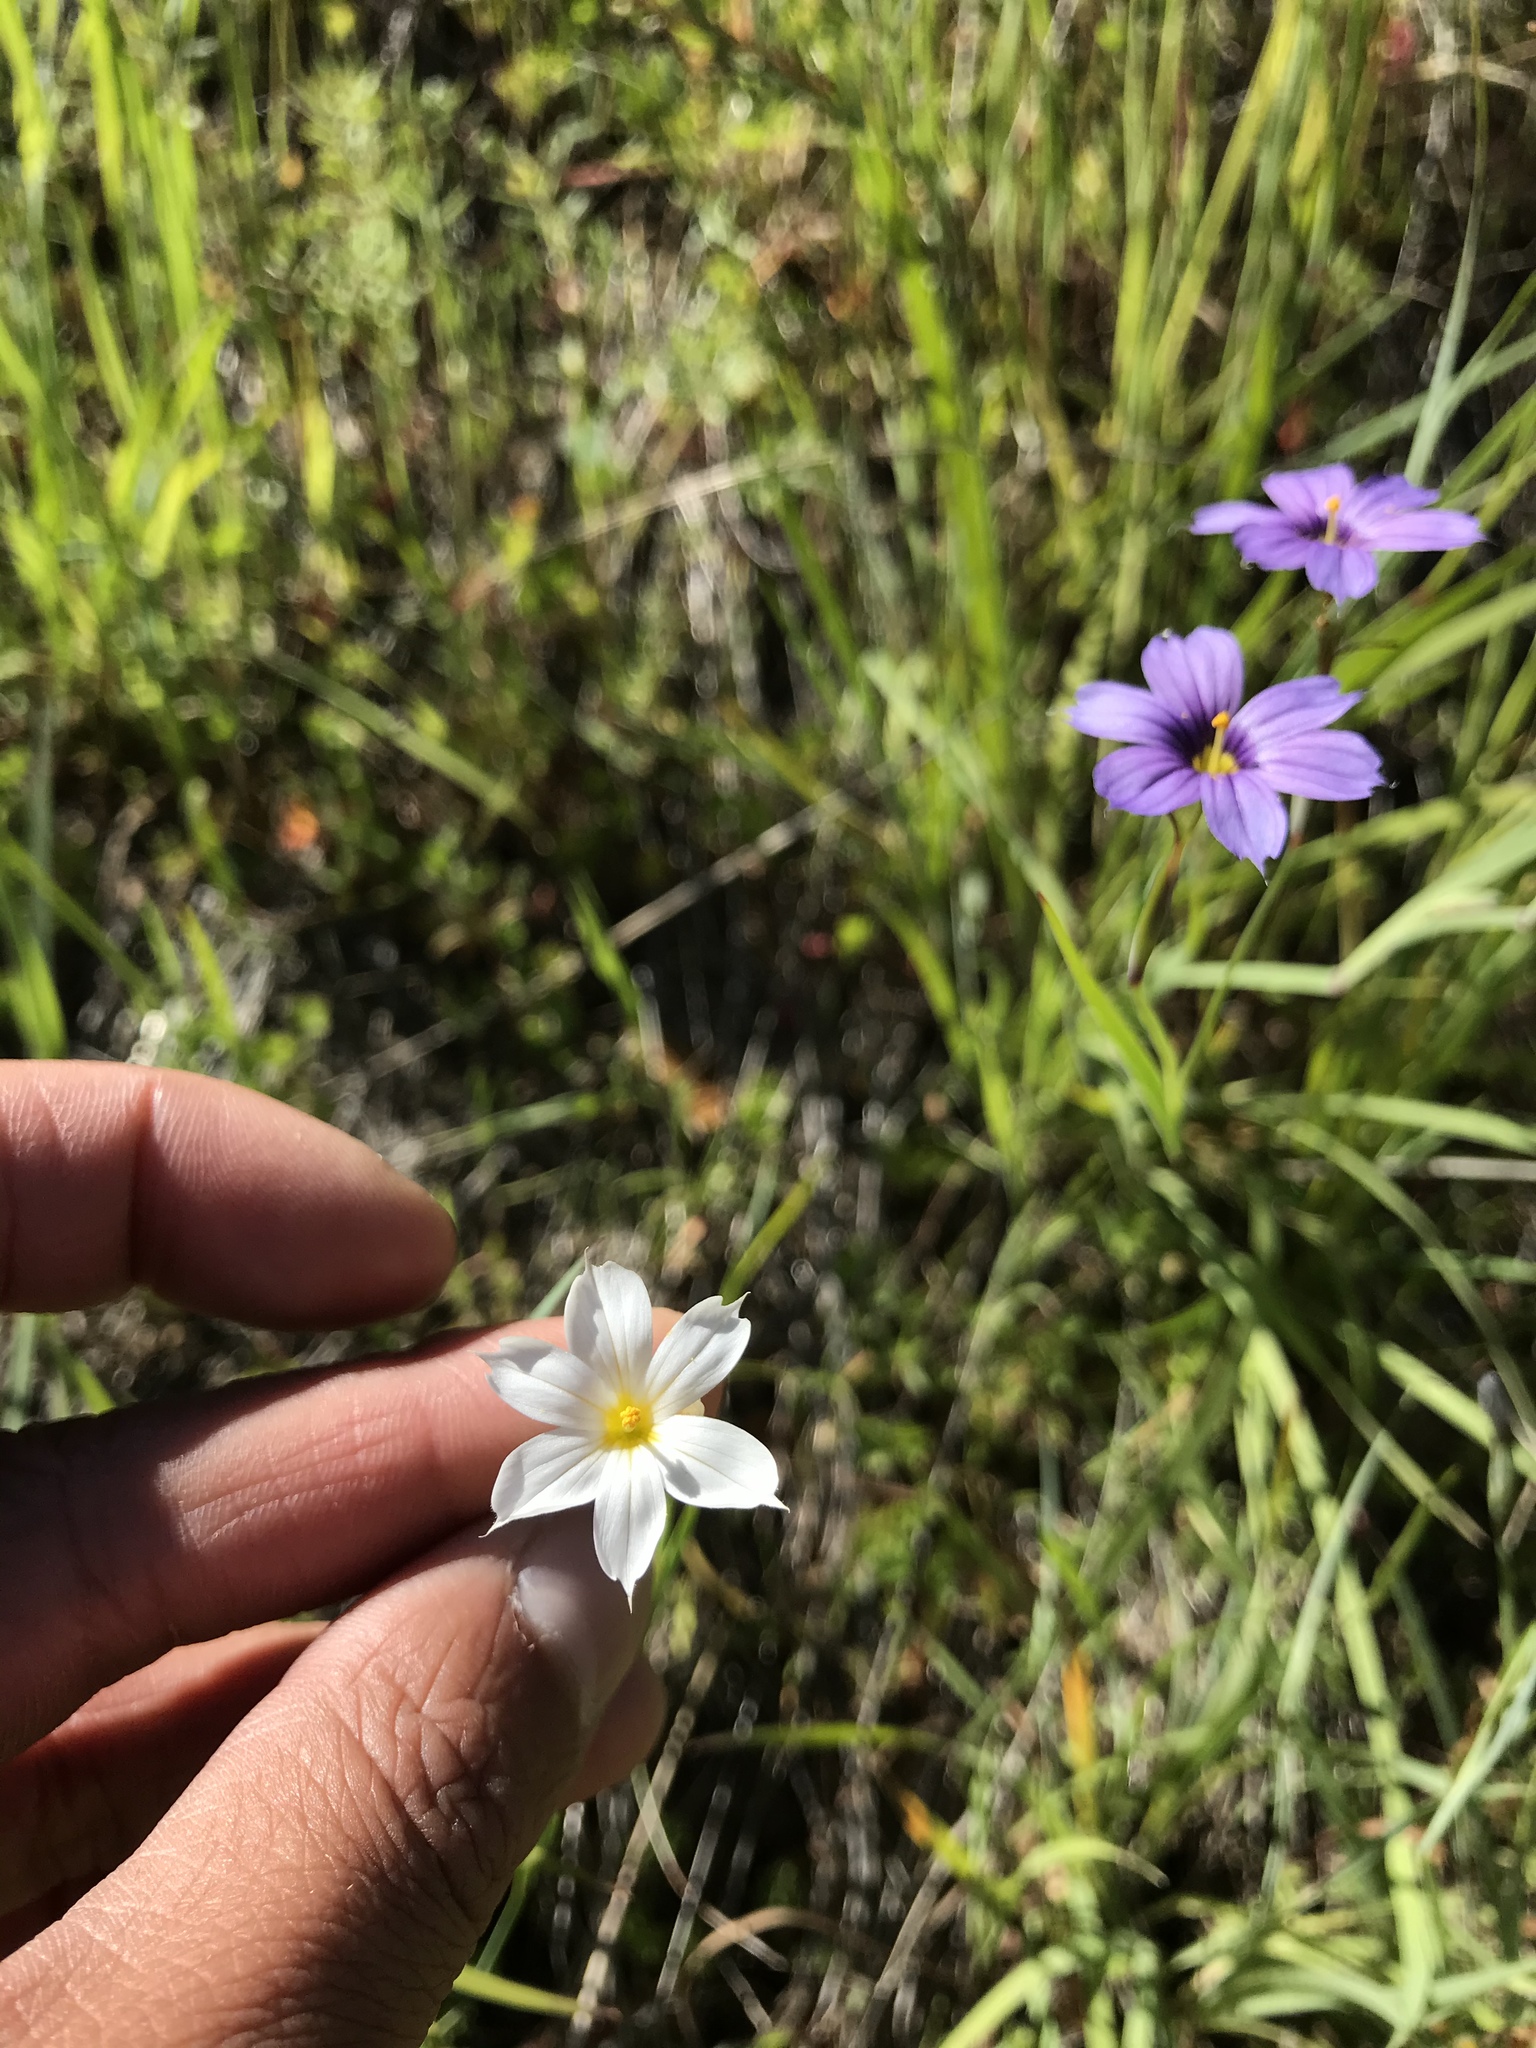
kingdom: Plantae
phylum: Tracheophyta
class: Liliopsida
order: Asparagales
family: Iridaceae
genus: Sisyrinchium
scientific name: Sisyrinchium bellum
